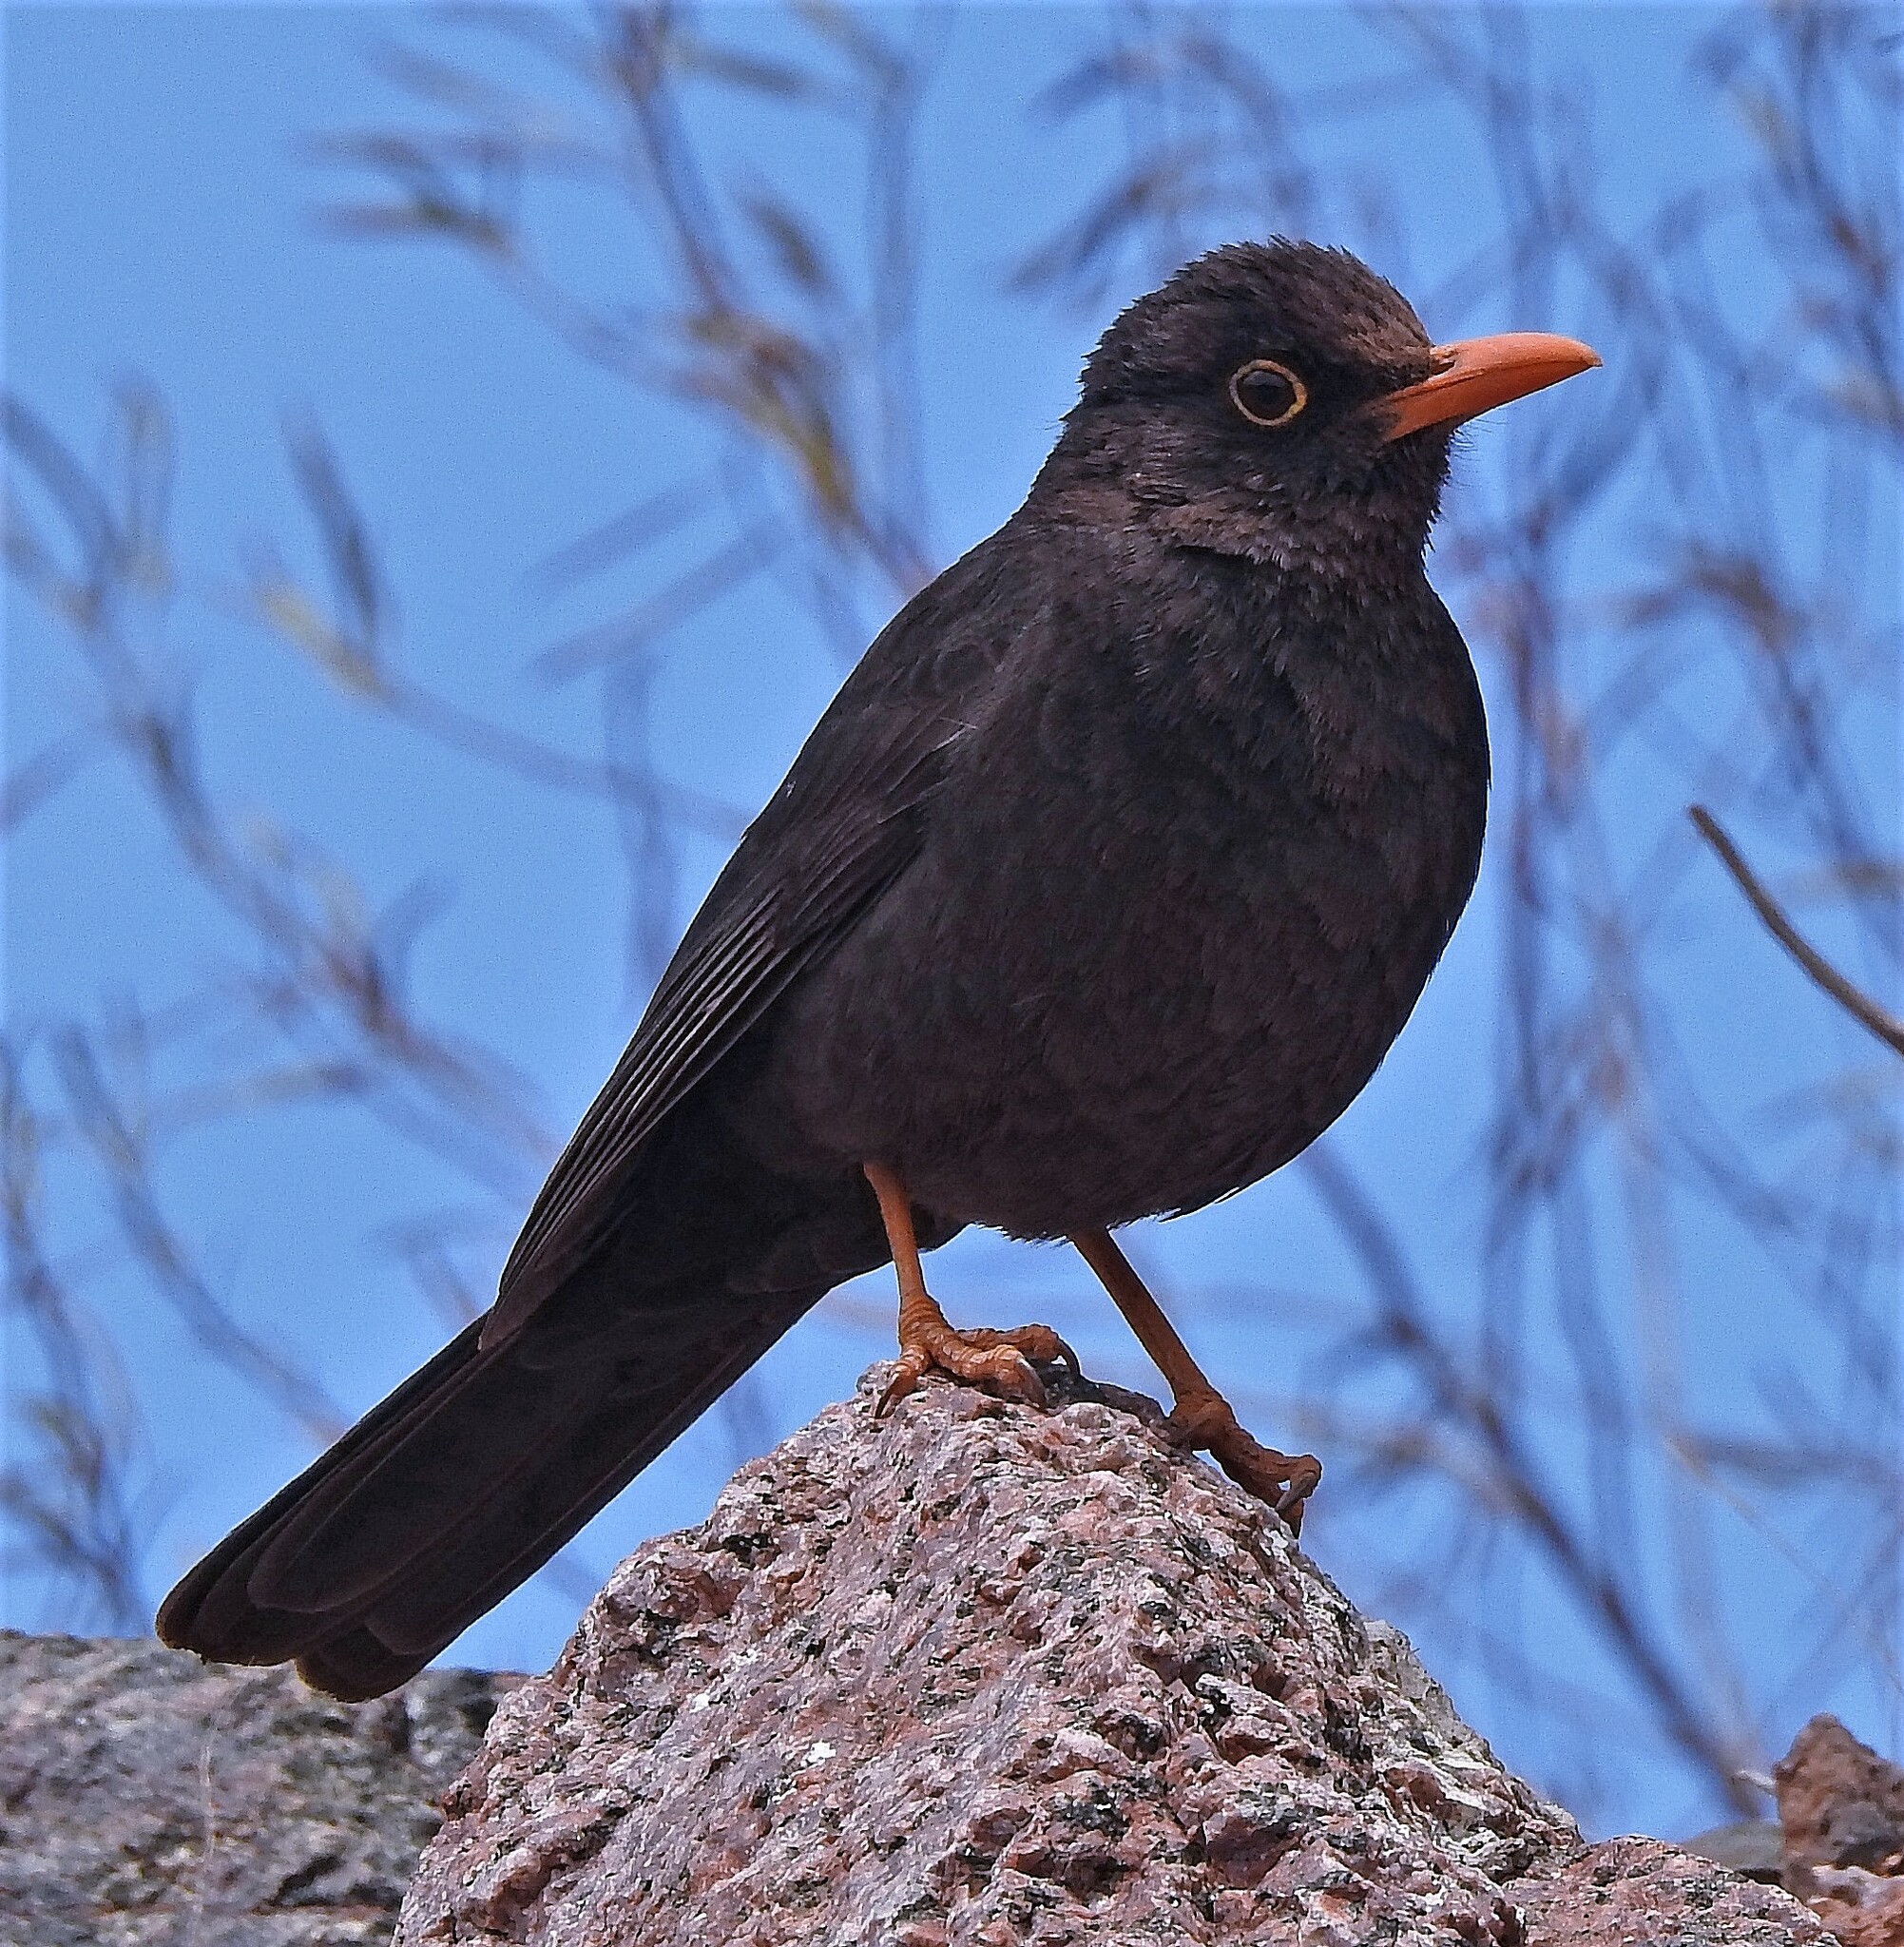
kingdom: Animalia
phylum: Chordata
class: Aves
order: Passeriformes
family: Turdidae
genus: Turdus
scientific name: Turdus chiguanco
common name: Chiguanco thrush
